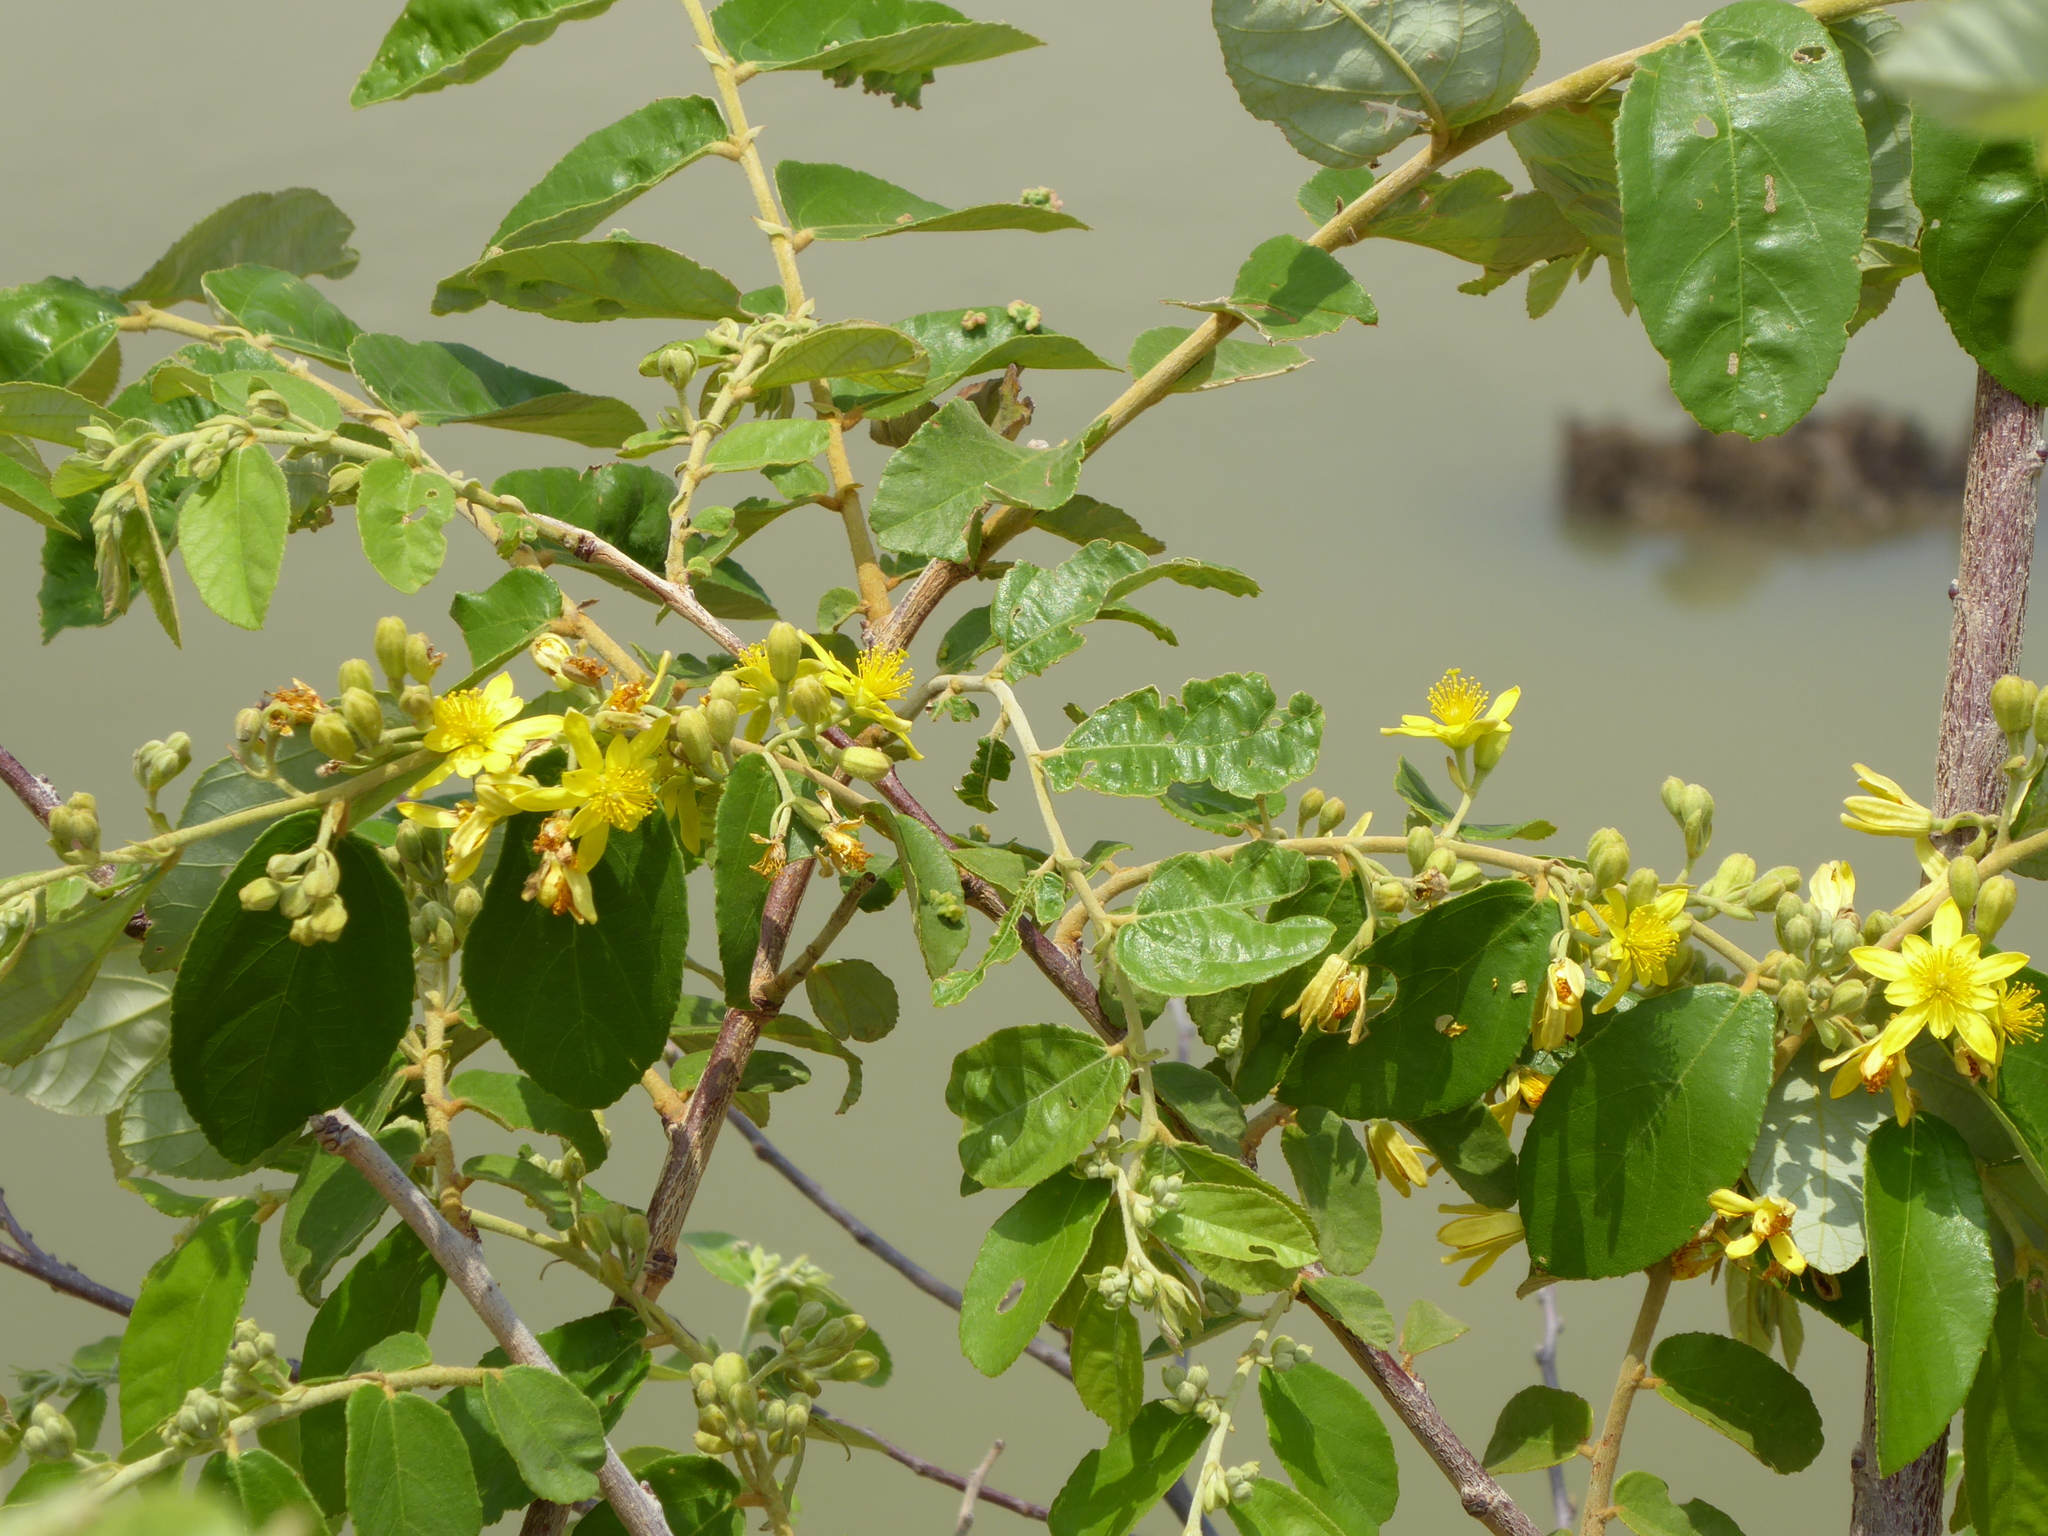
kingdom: Plantae
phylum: Tracheophyta
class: Magnoliopsida
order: Malvales
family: Malvaceae
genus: Grewia
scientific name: Grewia monticola
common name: Grey raisin
